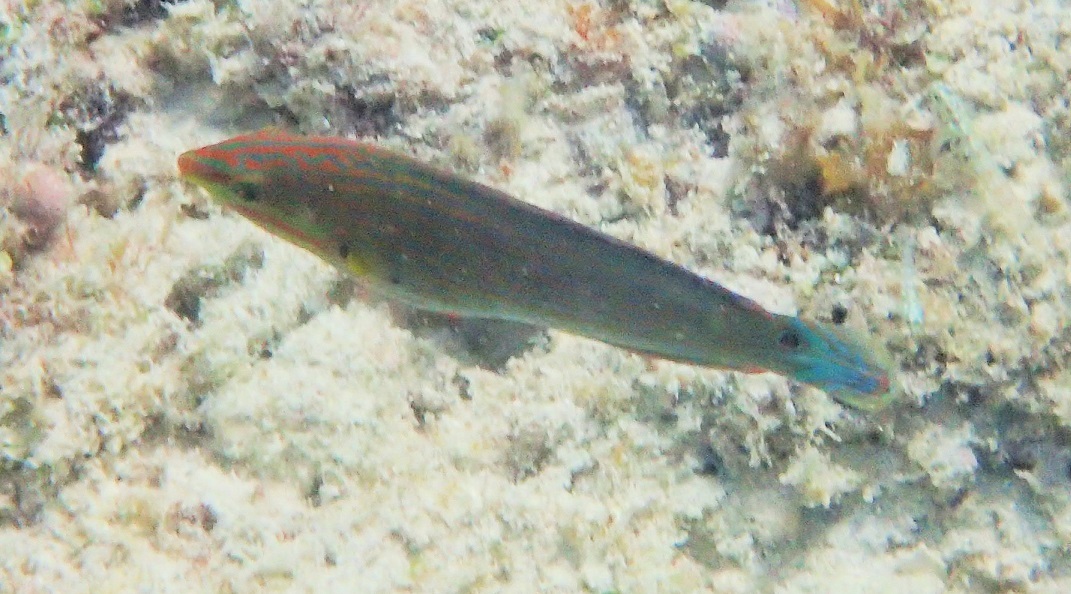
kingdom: Animalia
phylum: Chordata
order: Perciformes
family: Labridae
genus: Halichoeres
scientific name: Halichoeres melanurus
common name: Hoeven's wrasse
